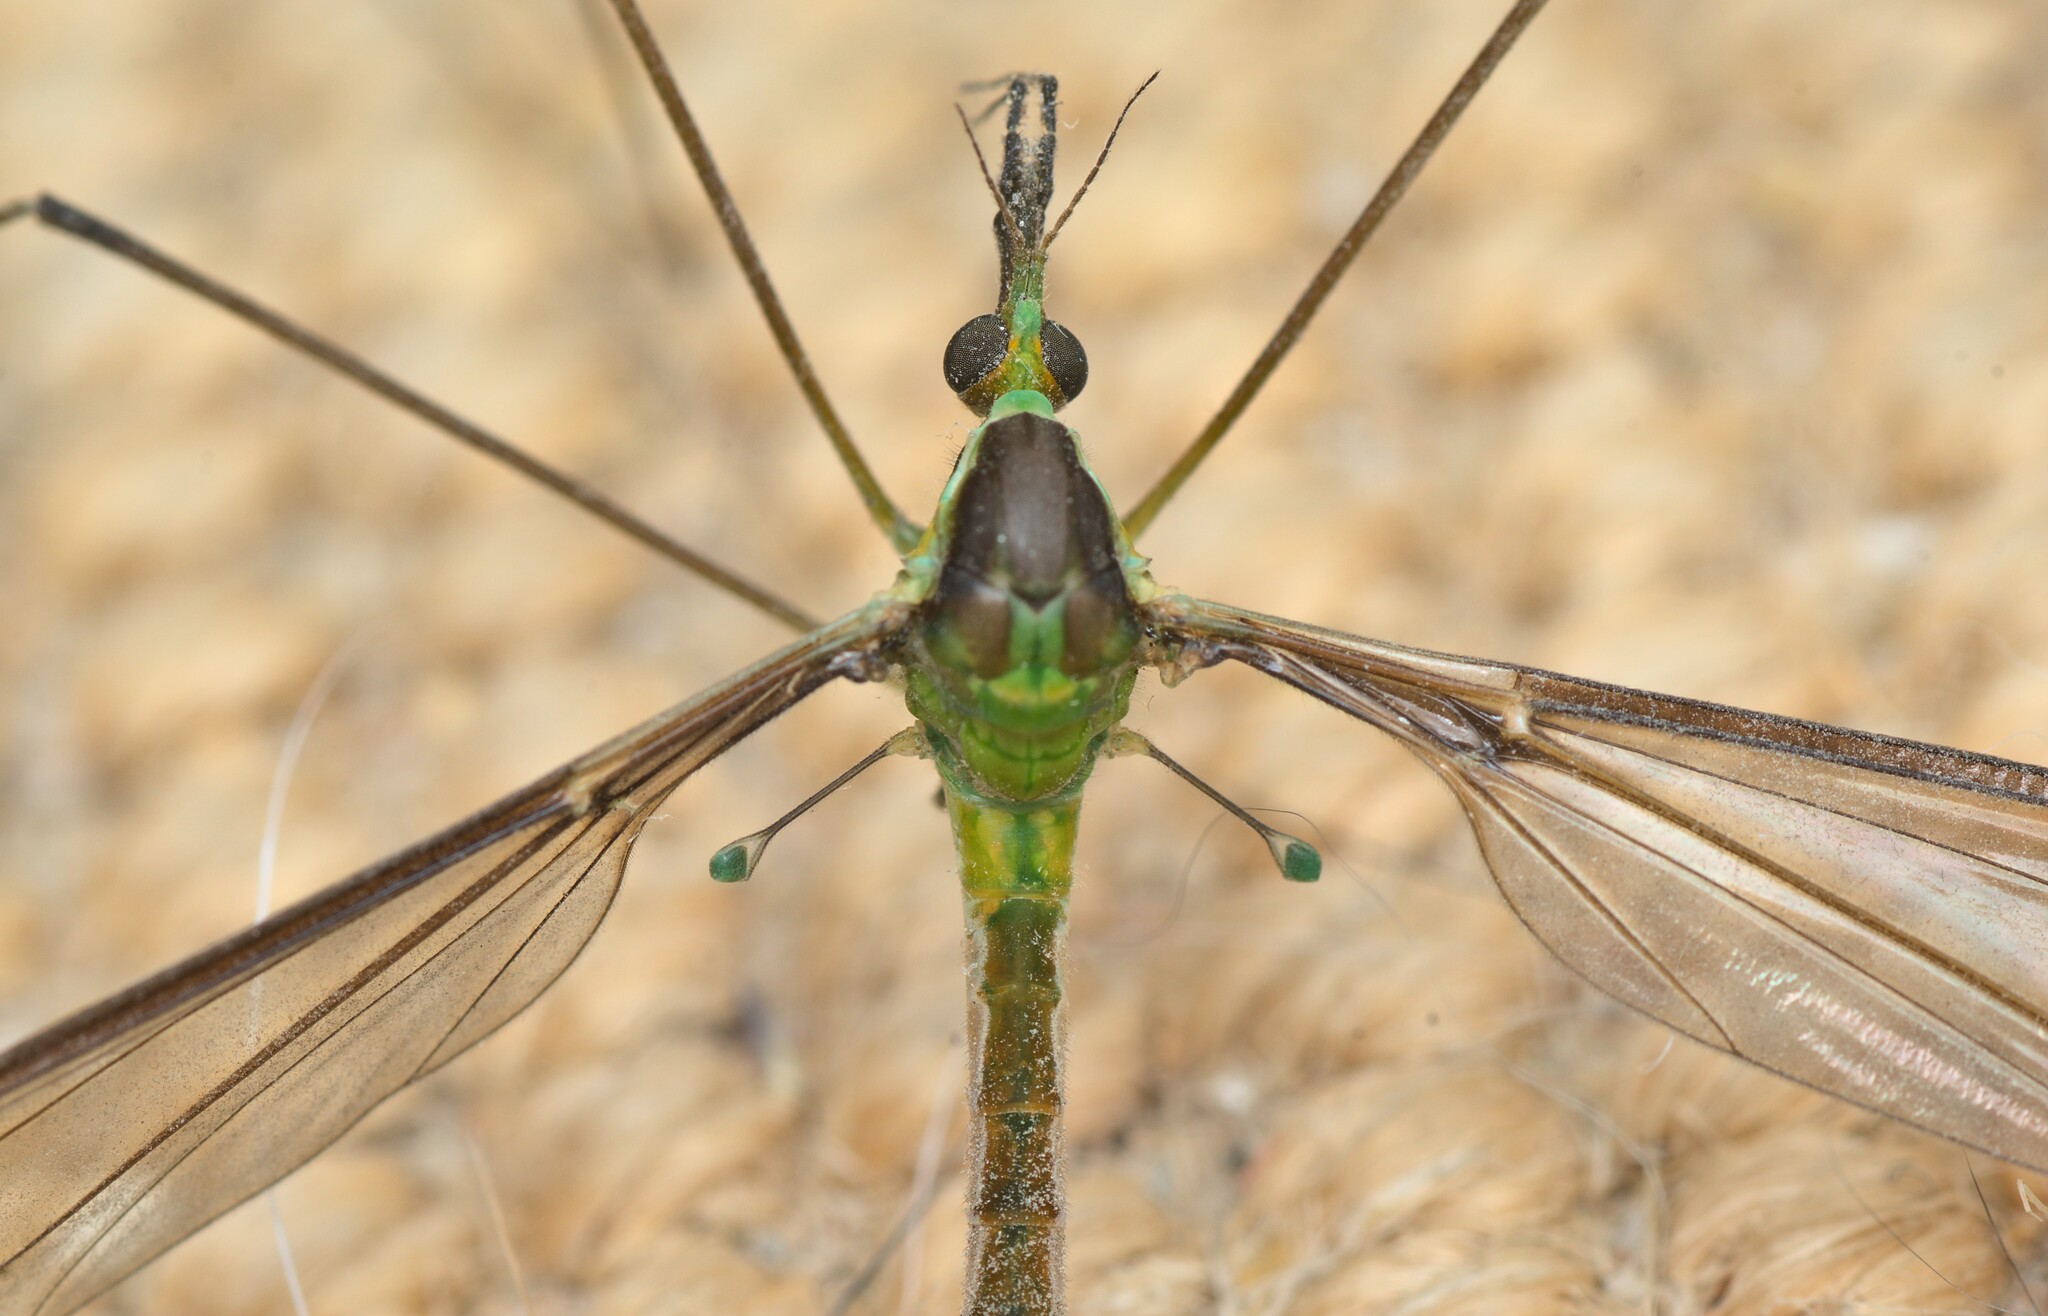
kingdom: Animalia
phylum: Arthropoda
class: Insecta
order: Diptera
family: Tipulidae
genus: Leptotarsus
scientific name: Leptotarsus albistigma
